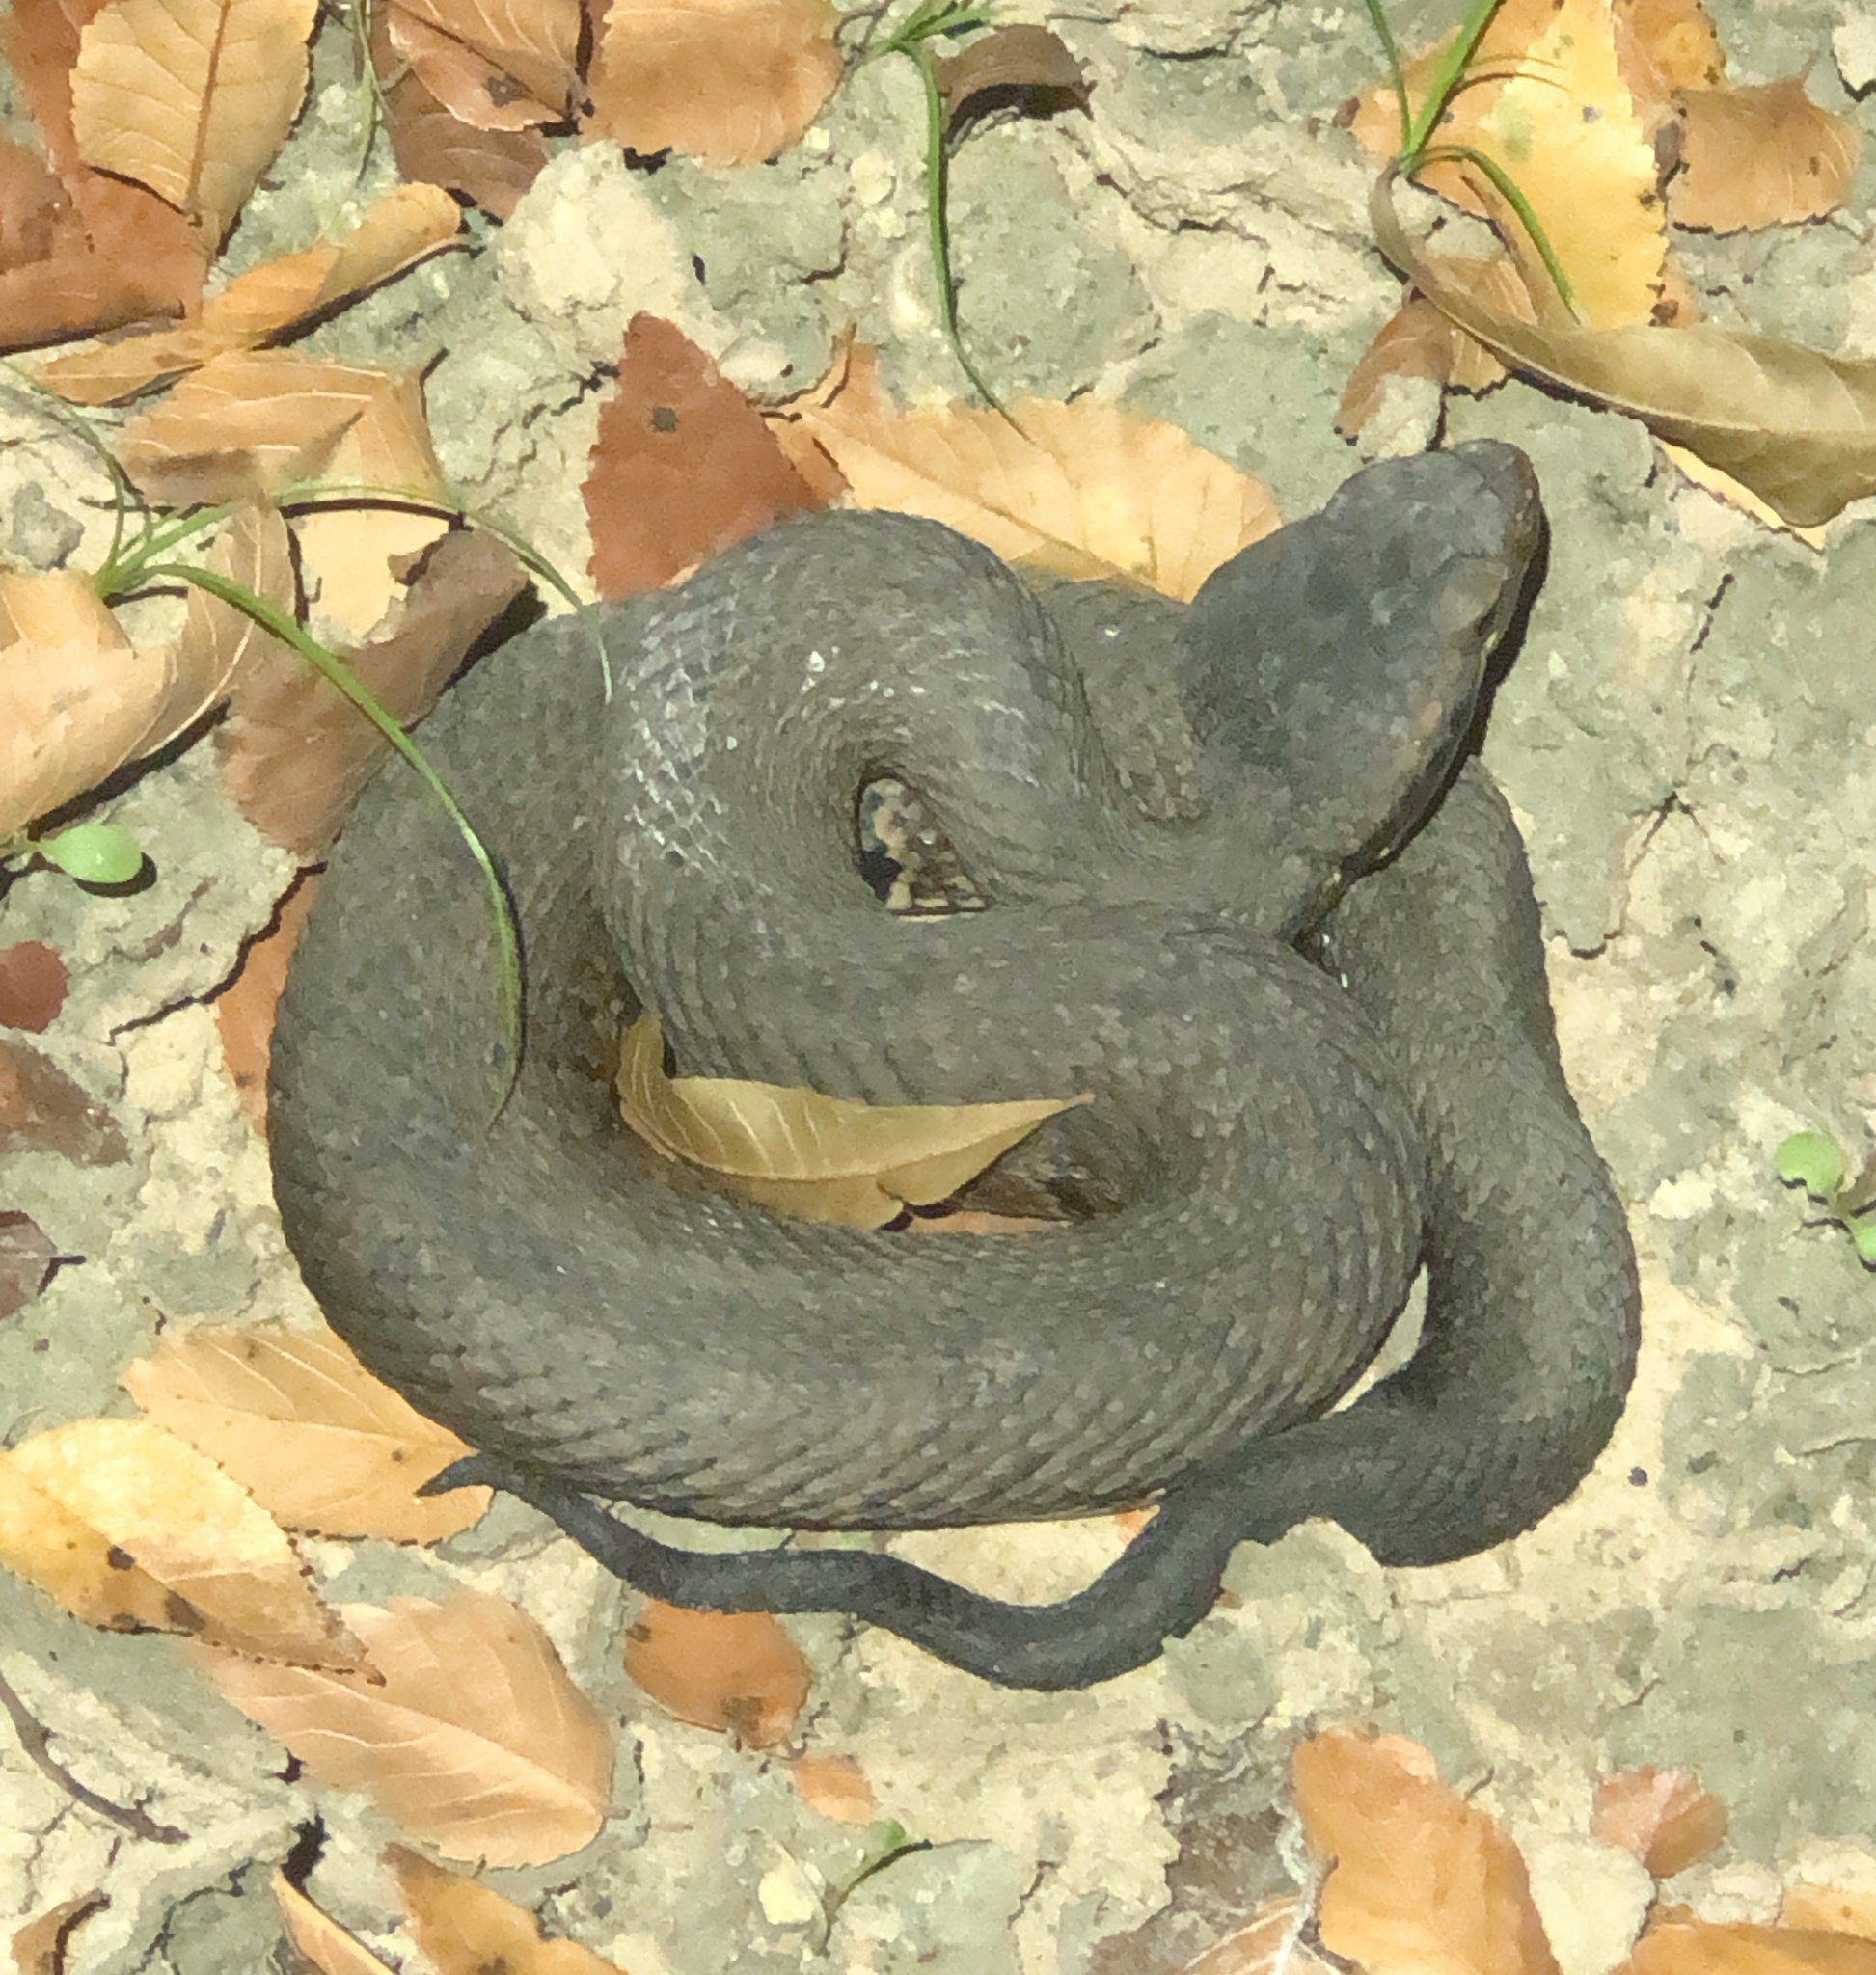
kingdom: Animalia
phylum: Chordata
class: Squamata
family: Viperidae
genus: Agkistrodon
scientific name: Agkistrodon piscivorus
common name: Cottonmouth
